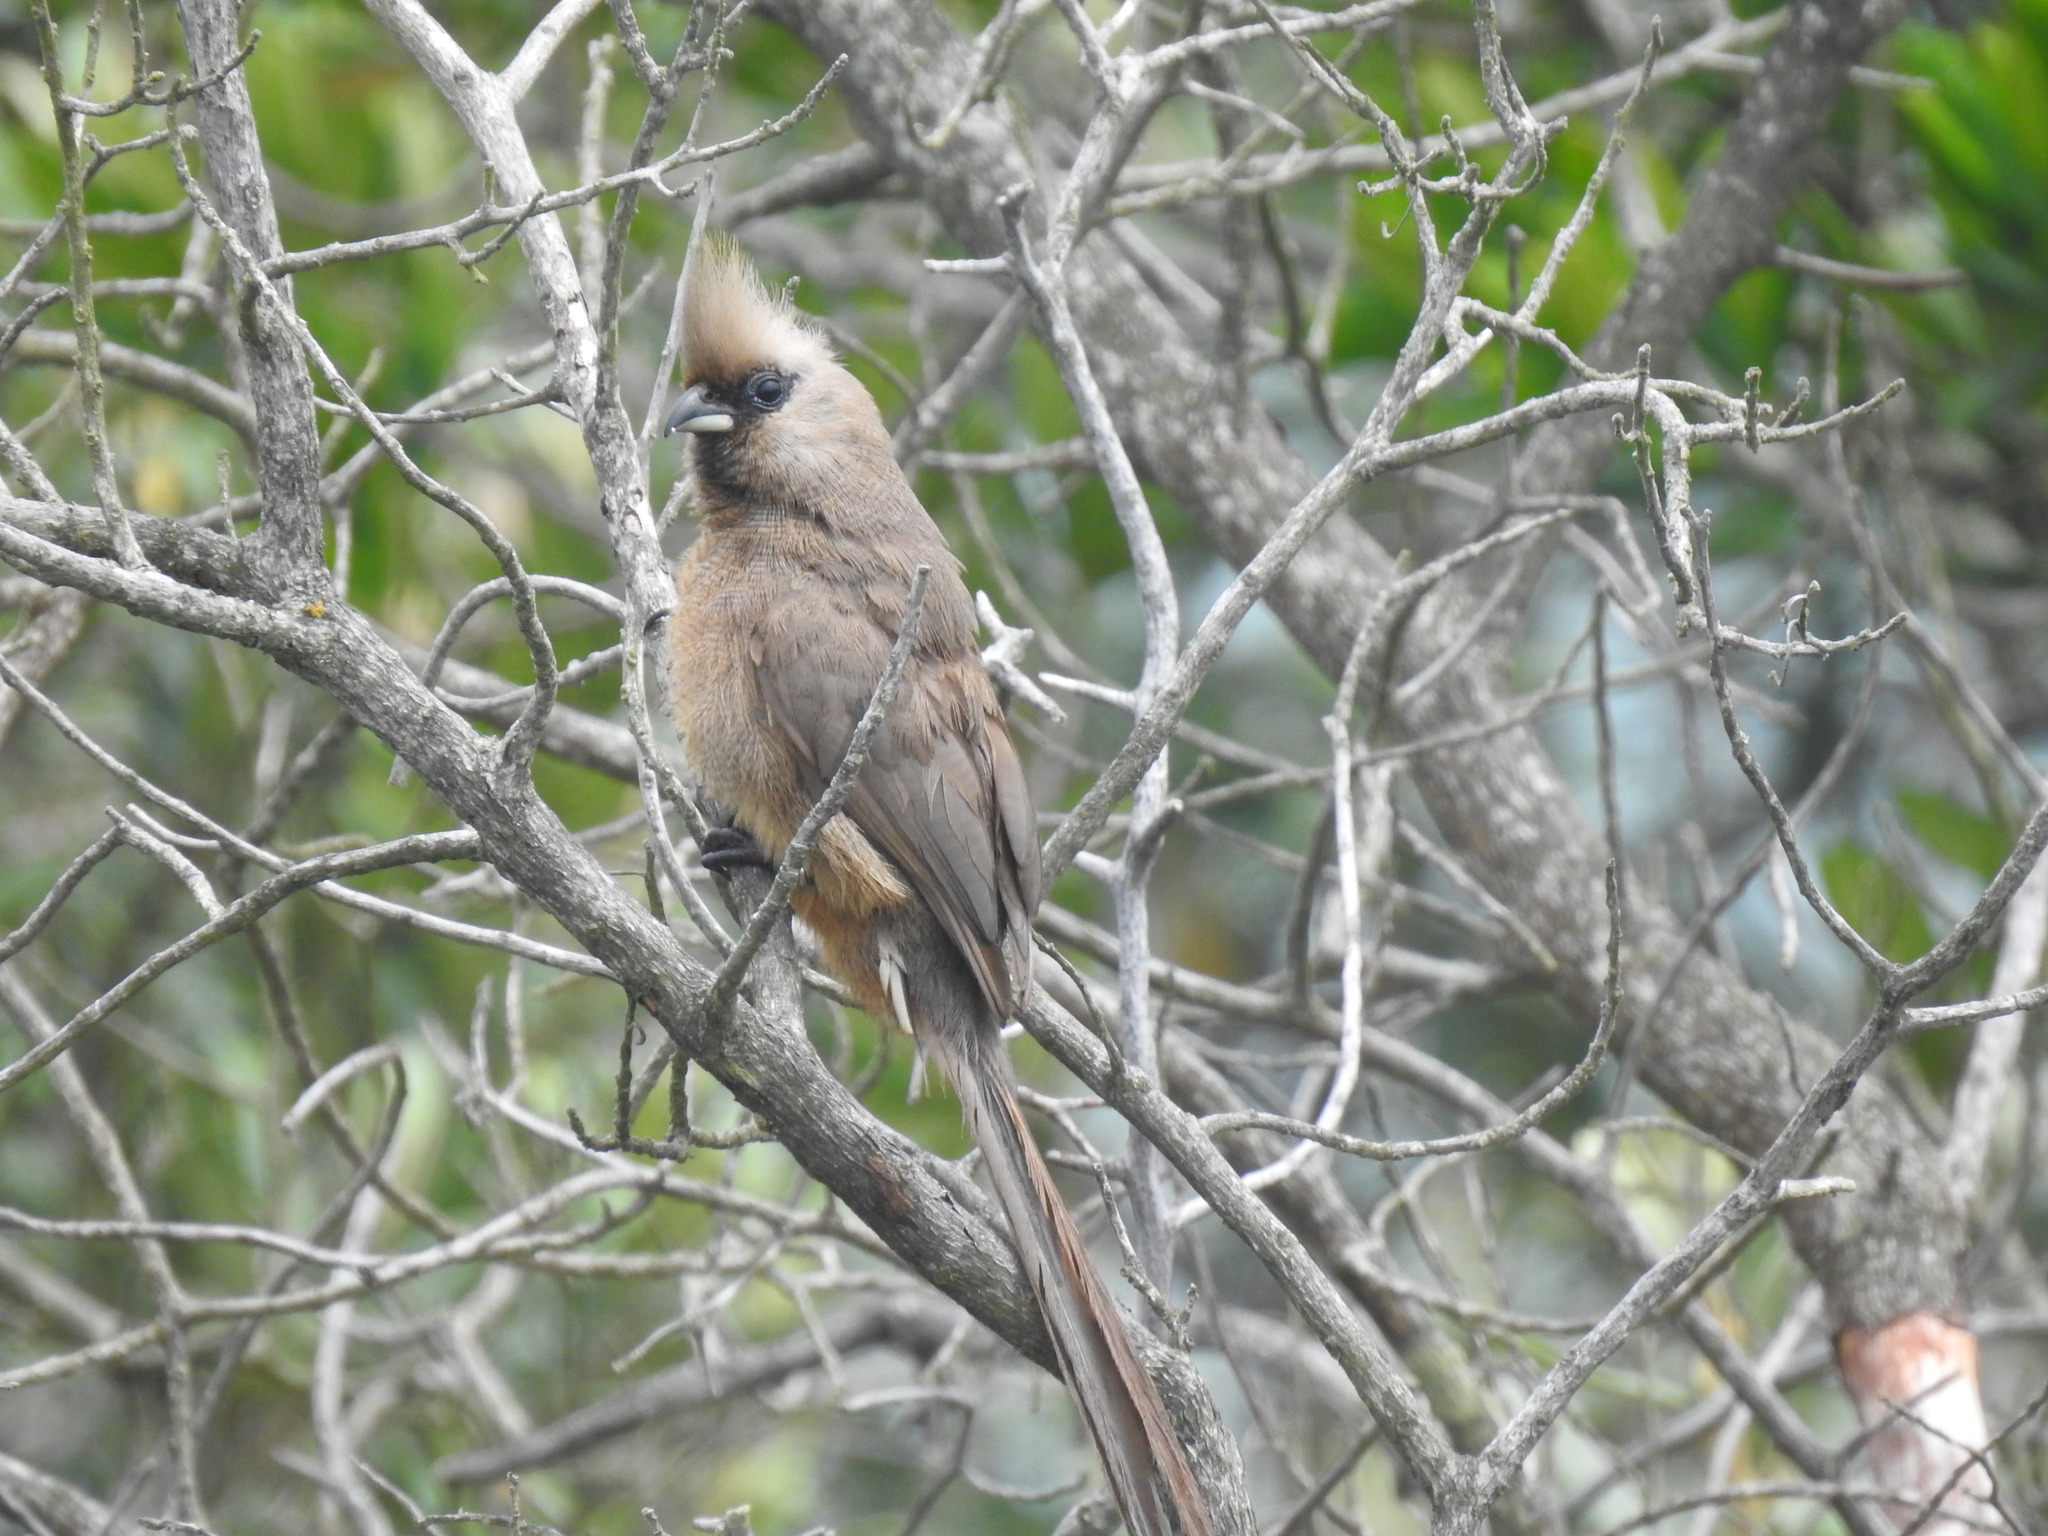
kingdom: Animalia
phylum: Chordata
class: Aves
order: Coliiformes
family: Coliidae
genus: Colius
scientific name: Colius striatus
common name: Speckled mousebird
